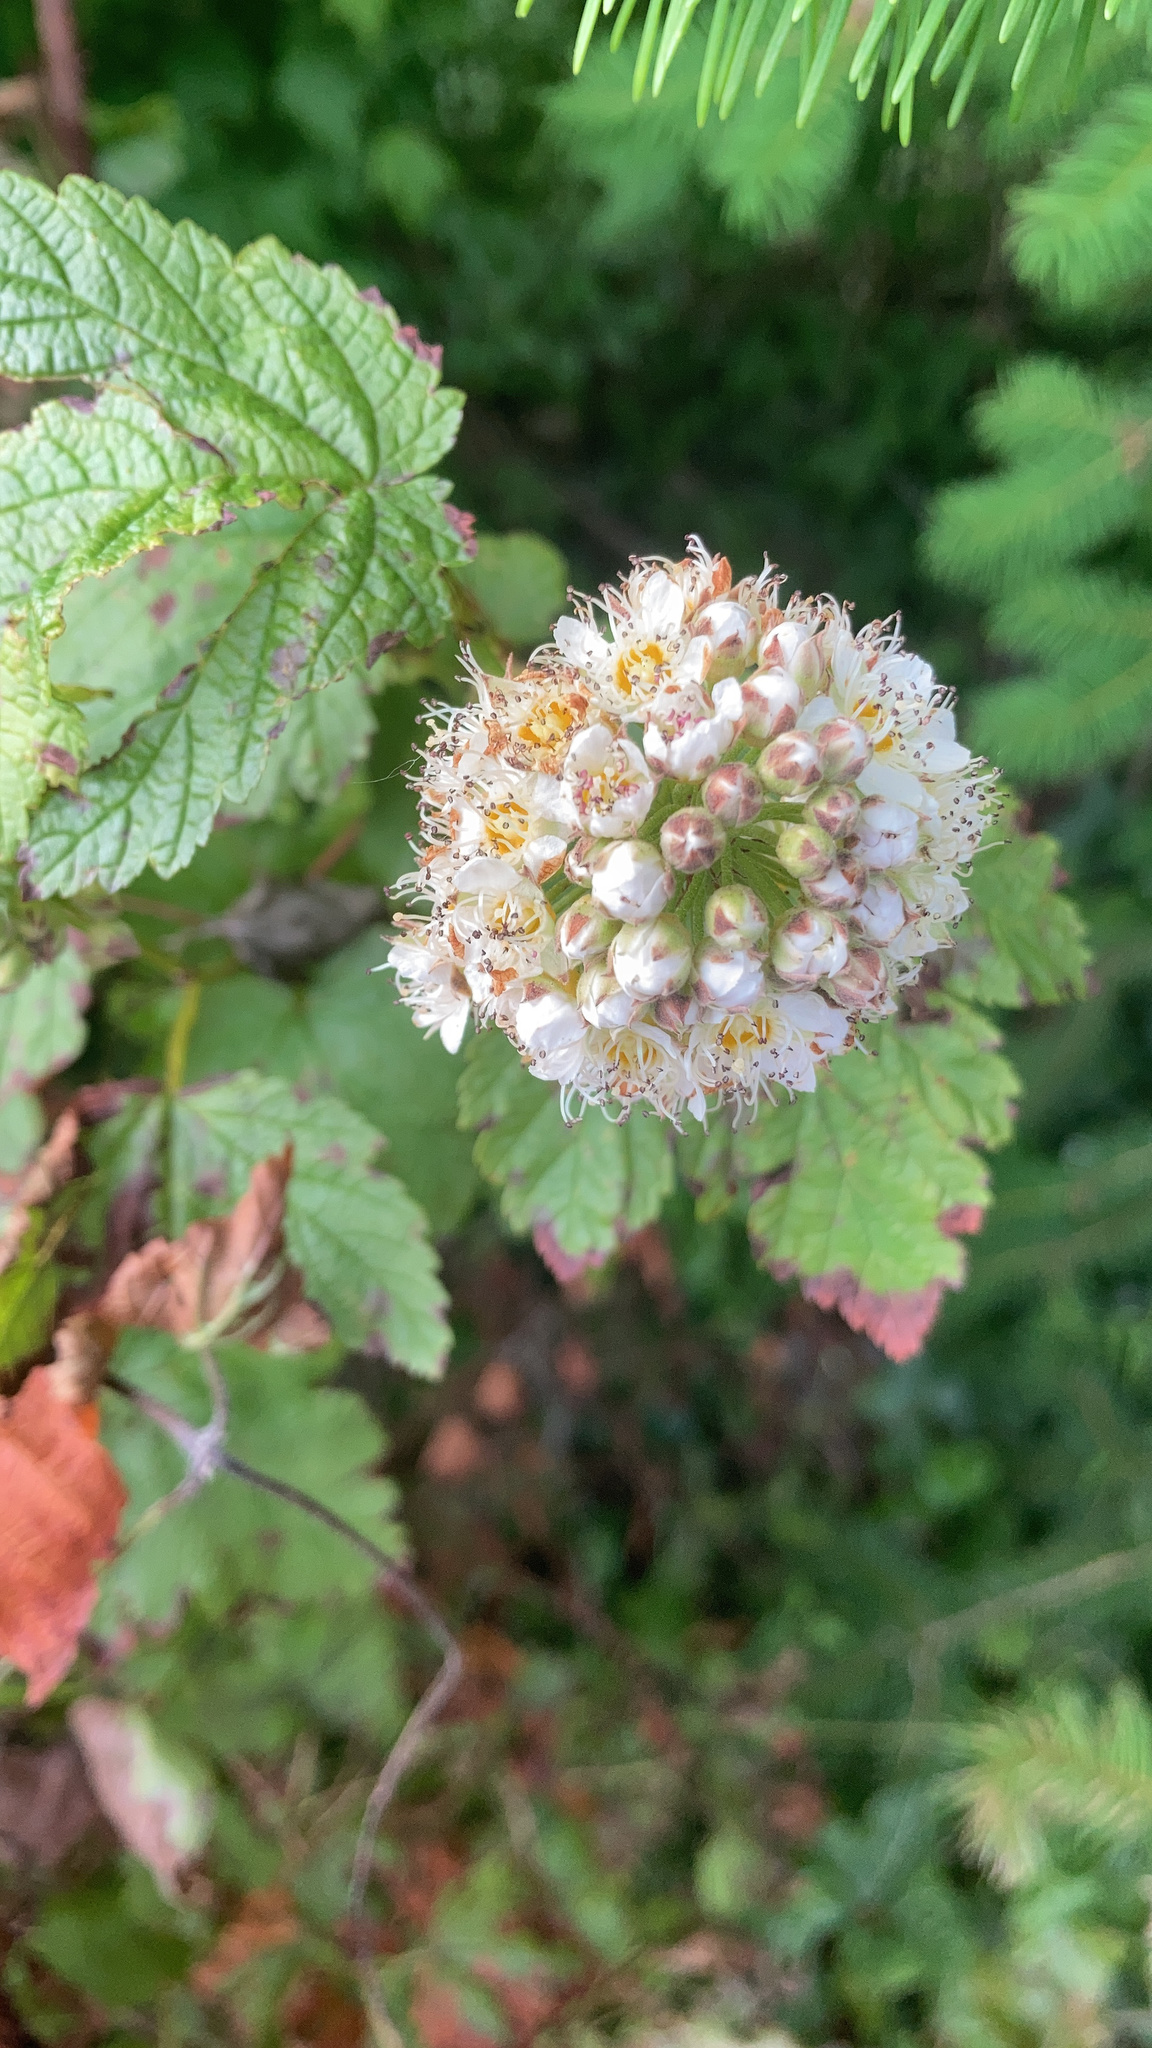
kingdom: Plantae
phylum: Tracheophyta
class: Magnoliopsida
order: Rosales
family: Rosaceae
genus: Physocarpus
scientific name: Physocarpus capitatus
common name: Pacific ninebark
